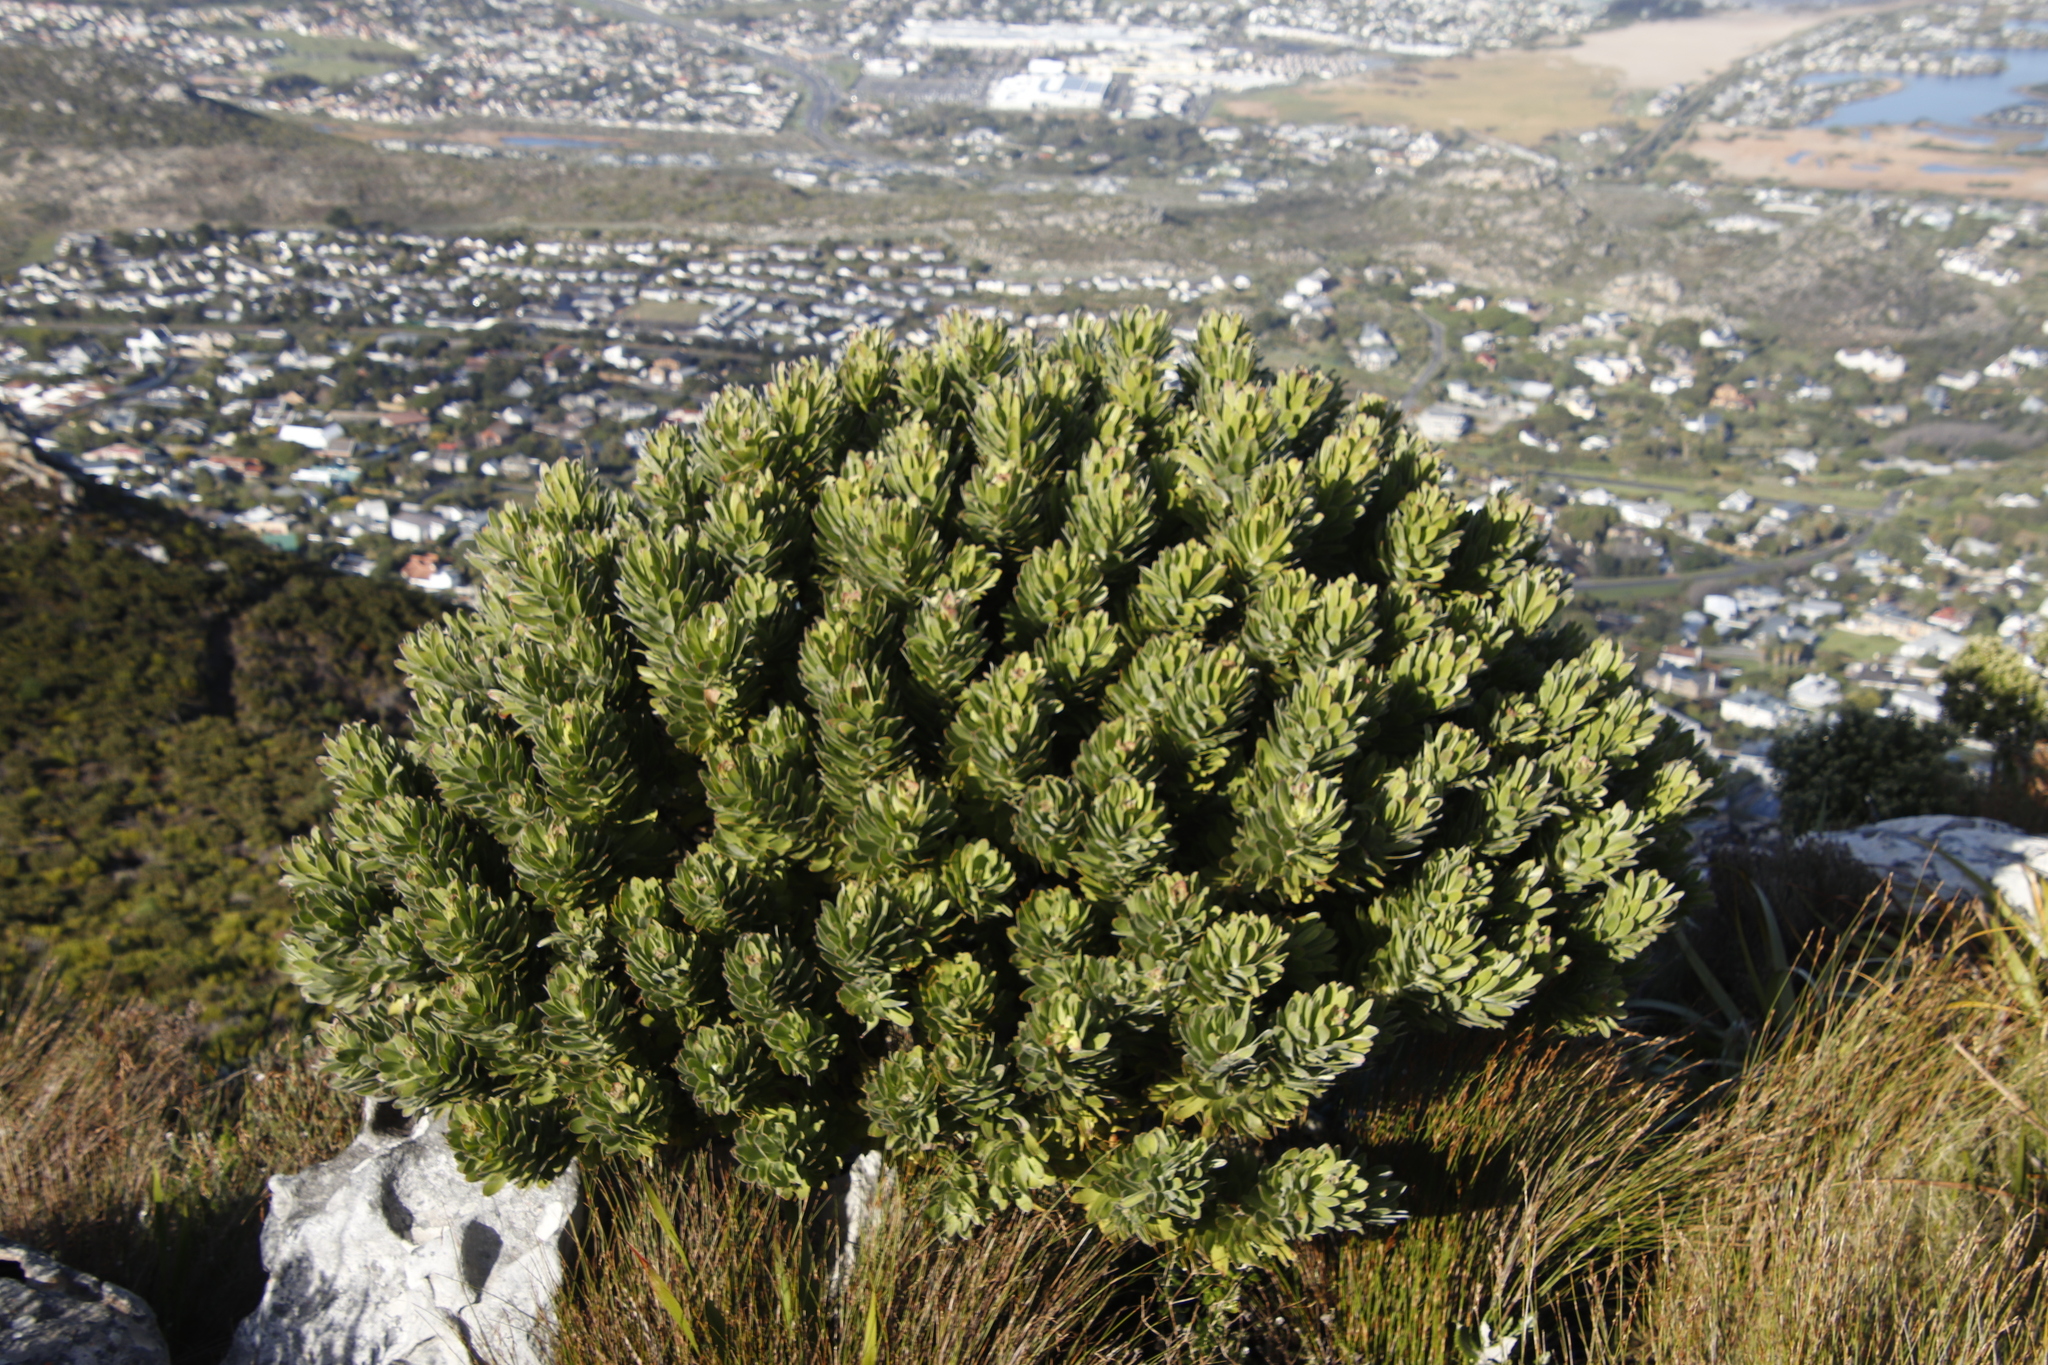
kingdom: Plantae
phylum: Tracheophyta
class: Magnoliopsida
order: Proteales
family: Proteaceae
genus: Mimetes
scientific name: Mimetes fimbriifolius
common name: Fringed bottlebrush
